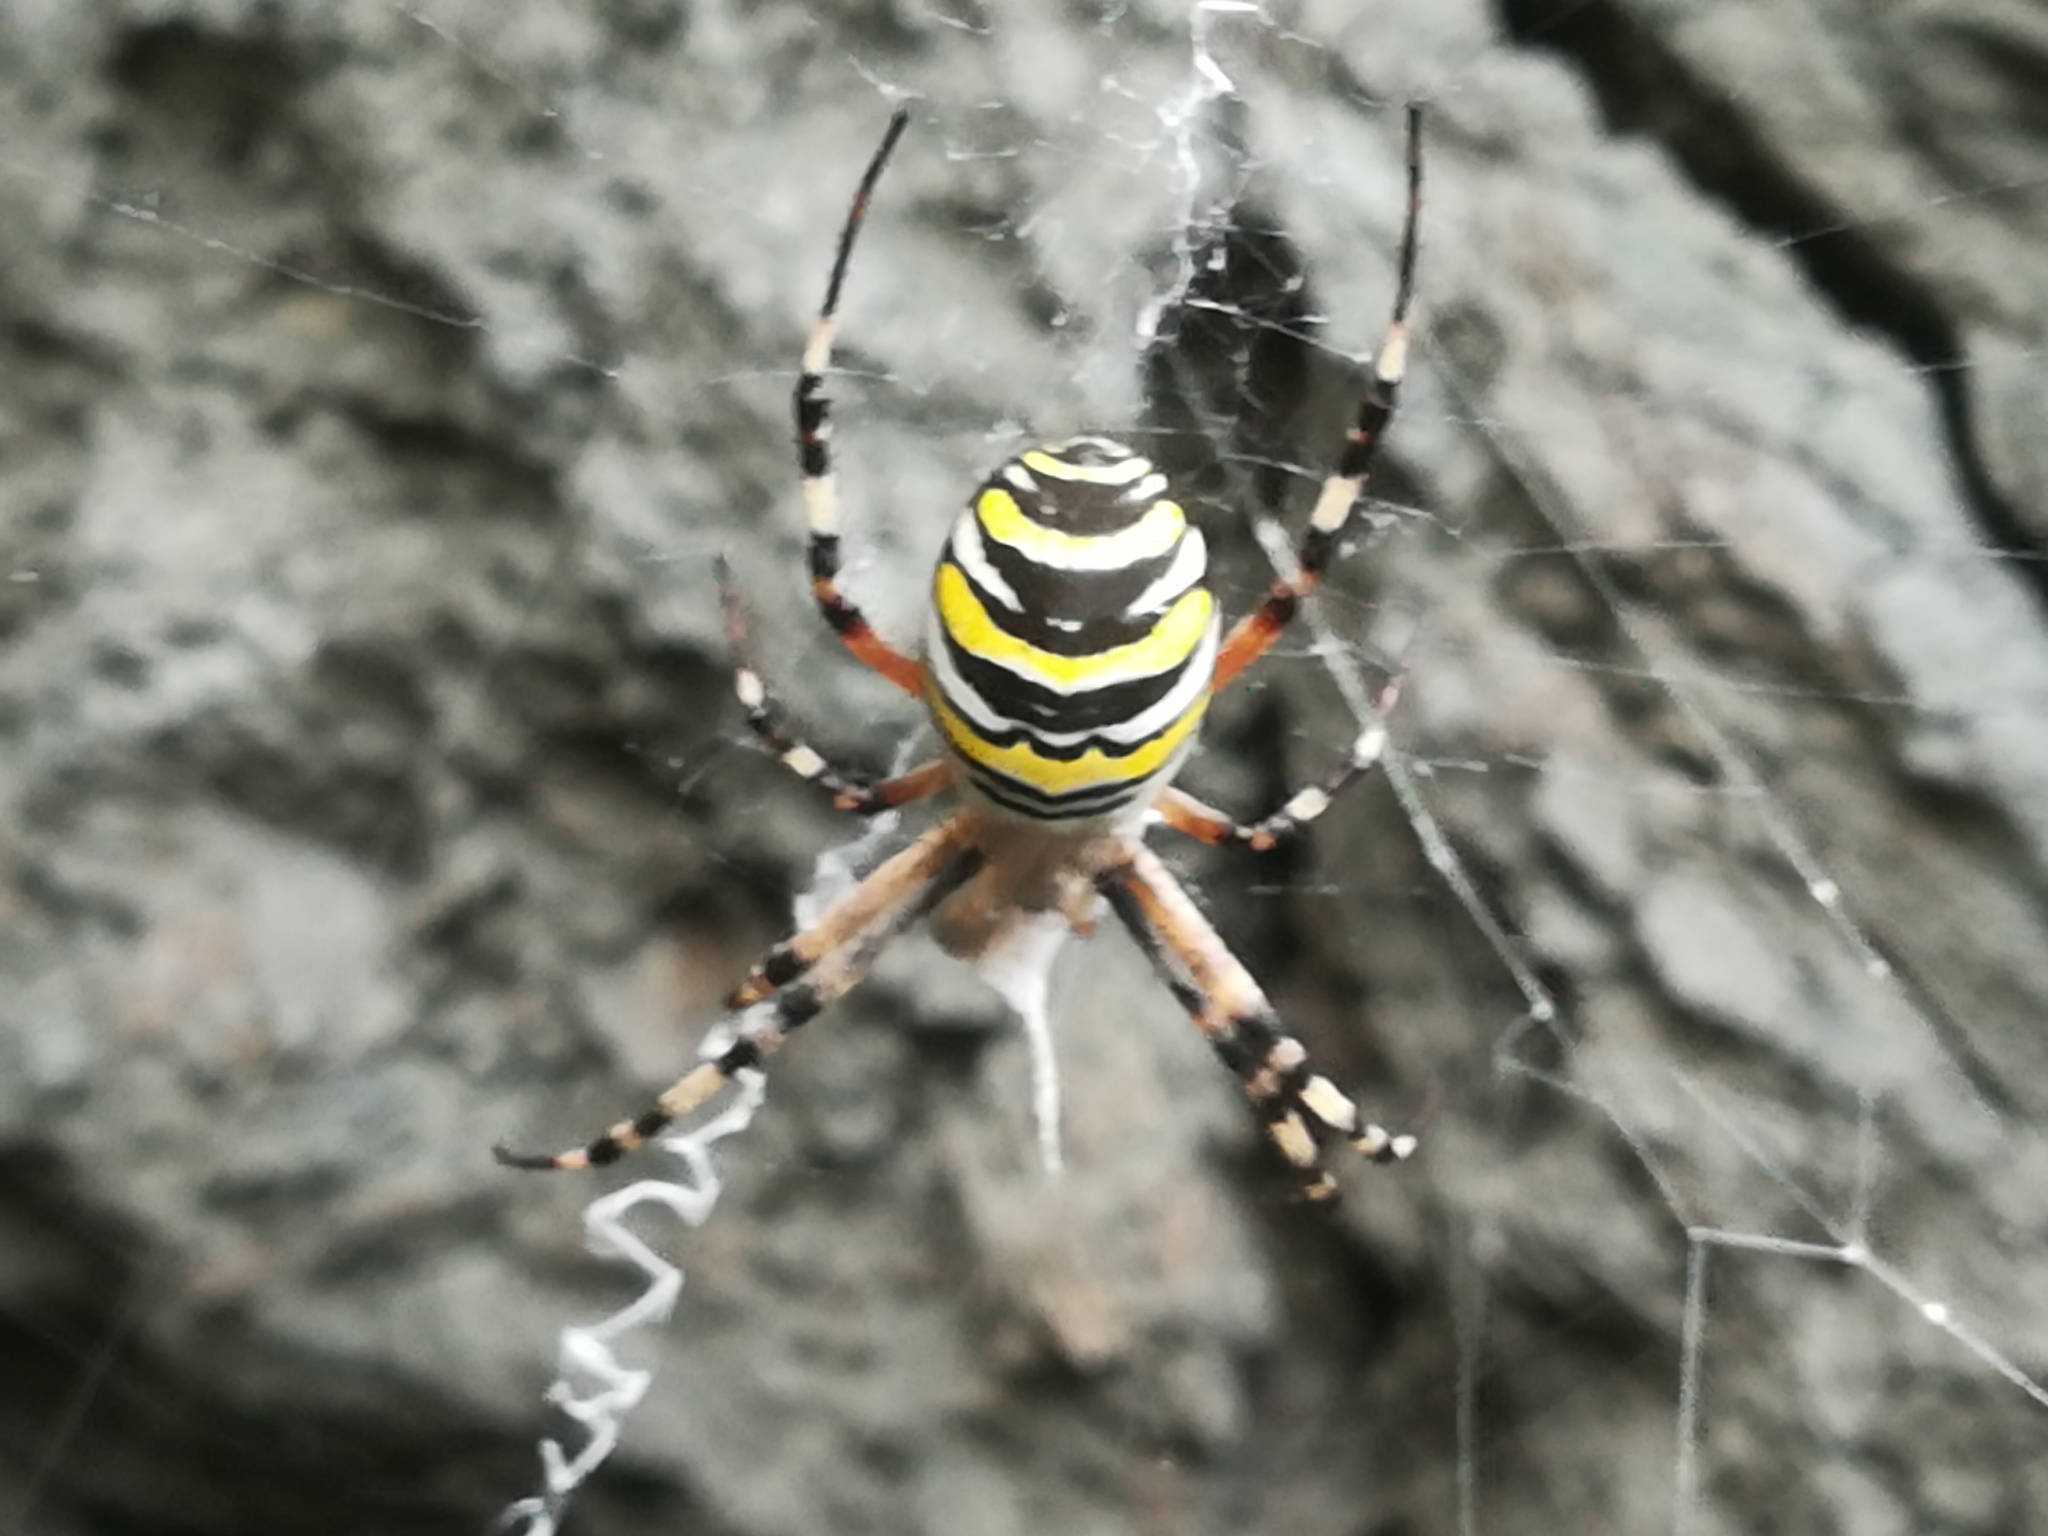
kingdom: Animalia
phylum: Arthropoda
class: Arachnida
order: Araneae
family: Araneidae
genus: Argiope
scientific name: Argiope bruennichi
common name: Wasp spider
